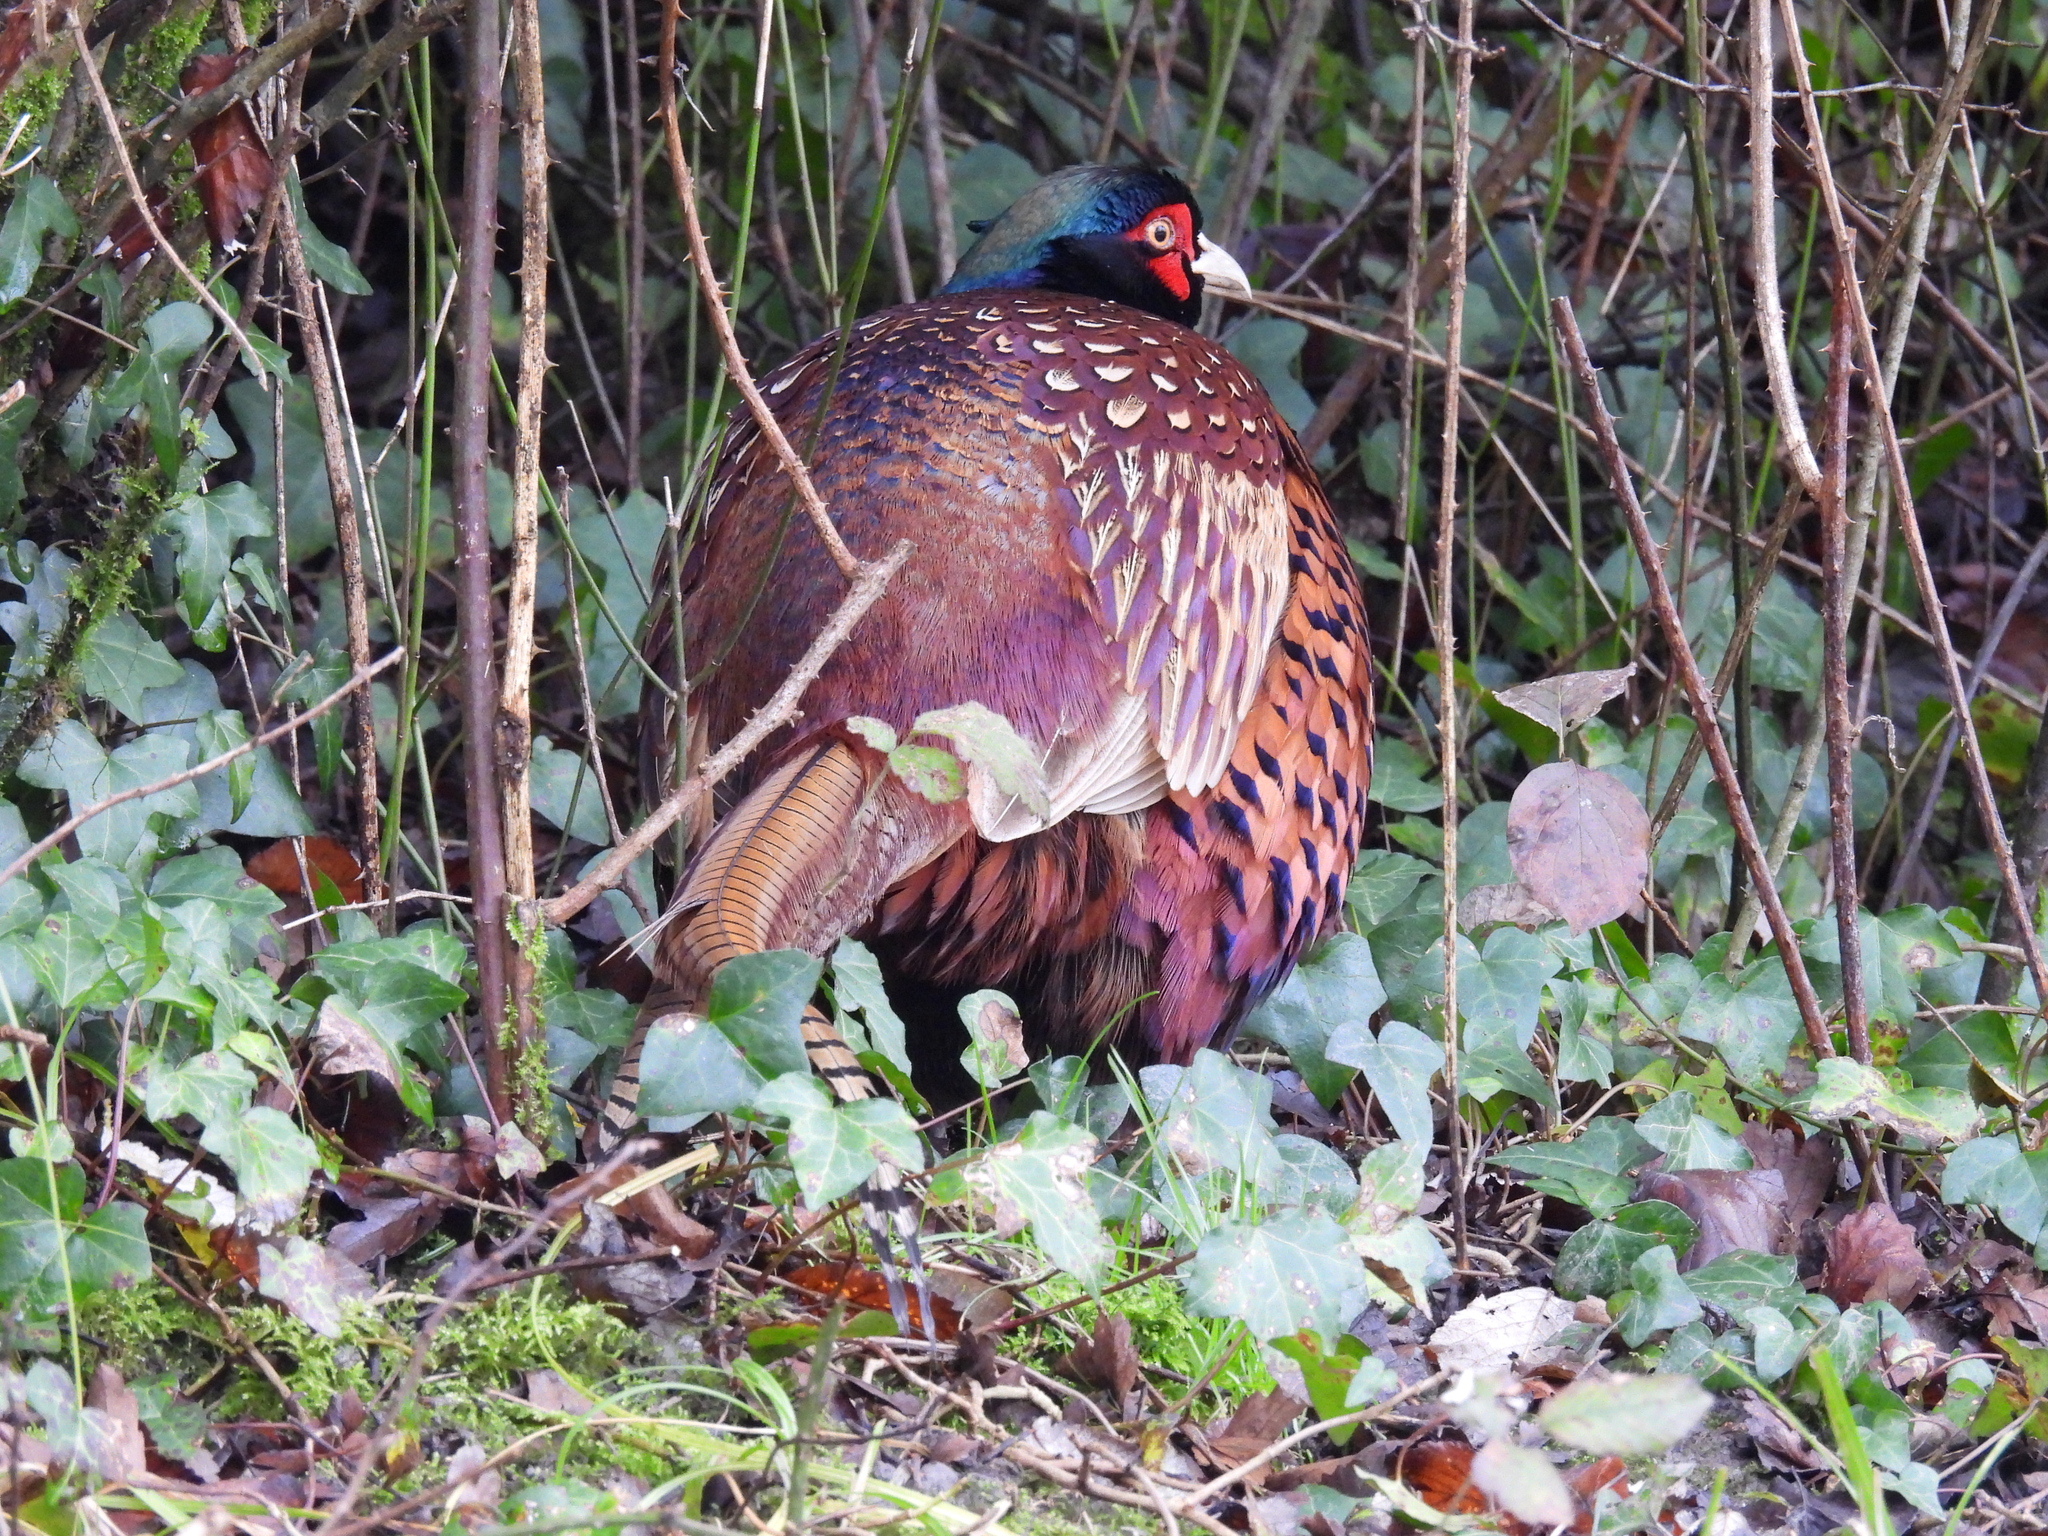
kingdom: Animalia
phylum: Chordata
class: Aves
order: Galliformes
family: Phasianidae
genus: Phasianus
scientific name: Phasianus colchicus
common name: Common pheasant
